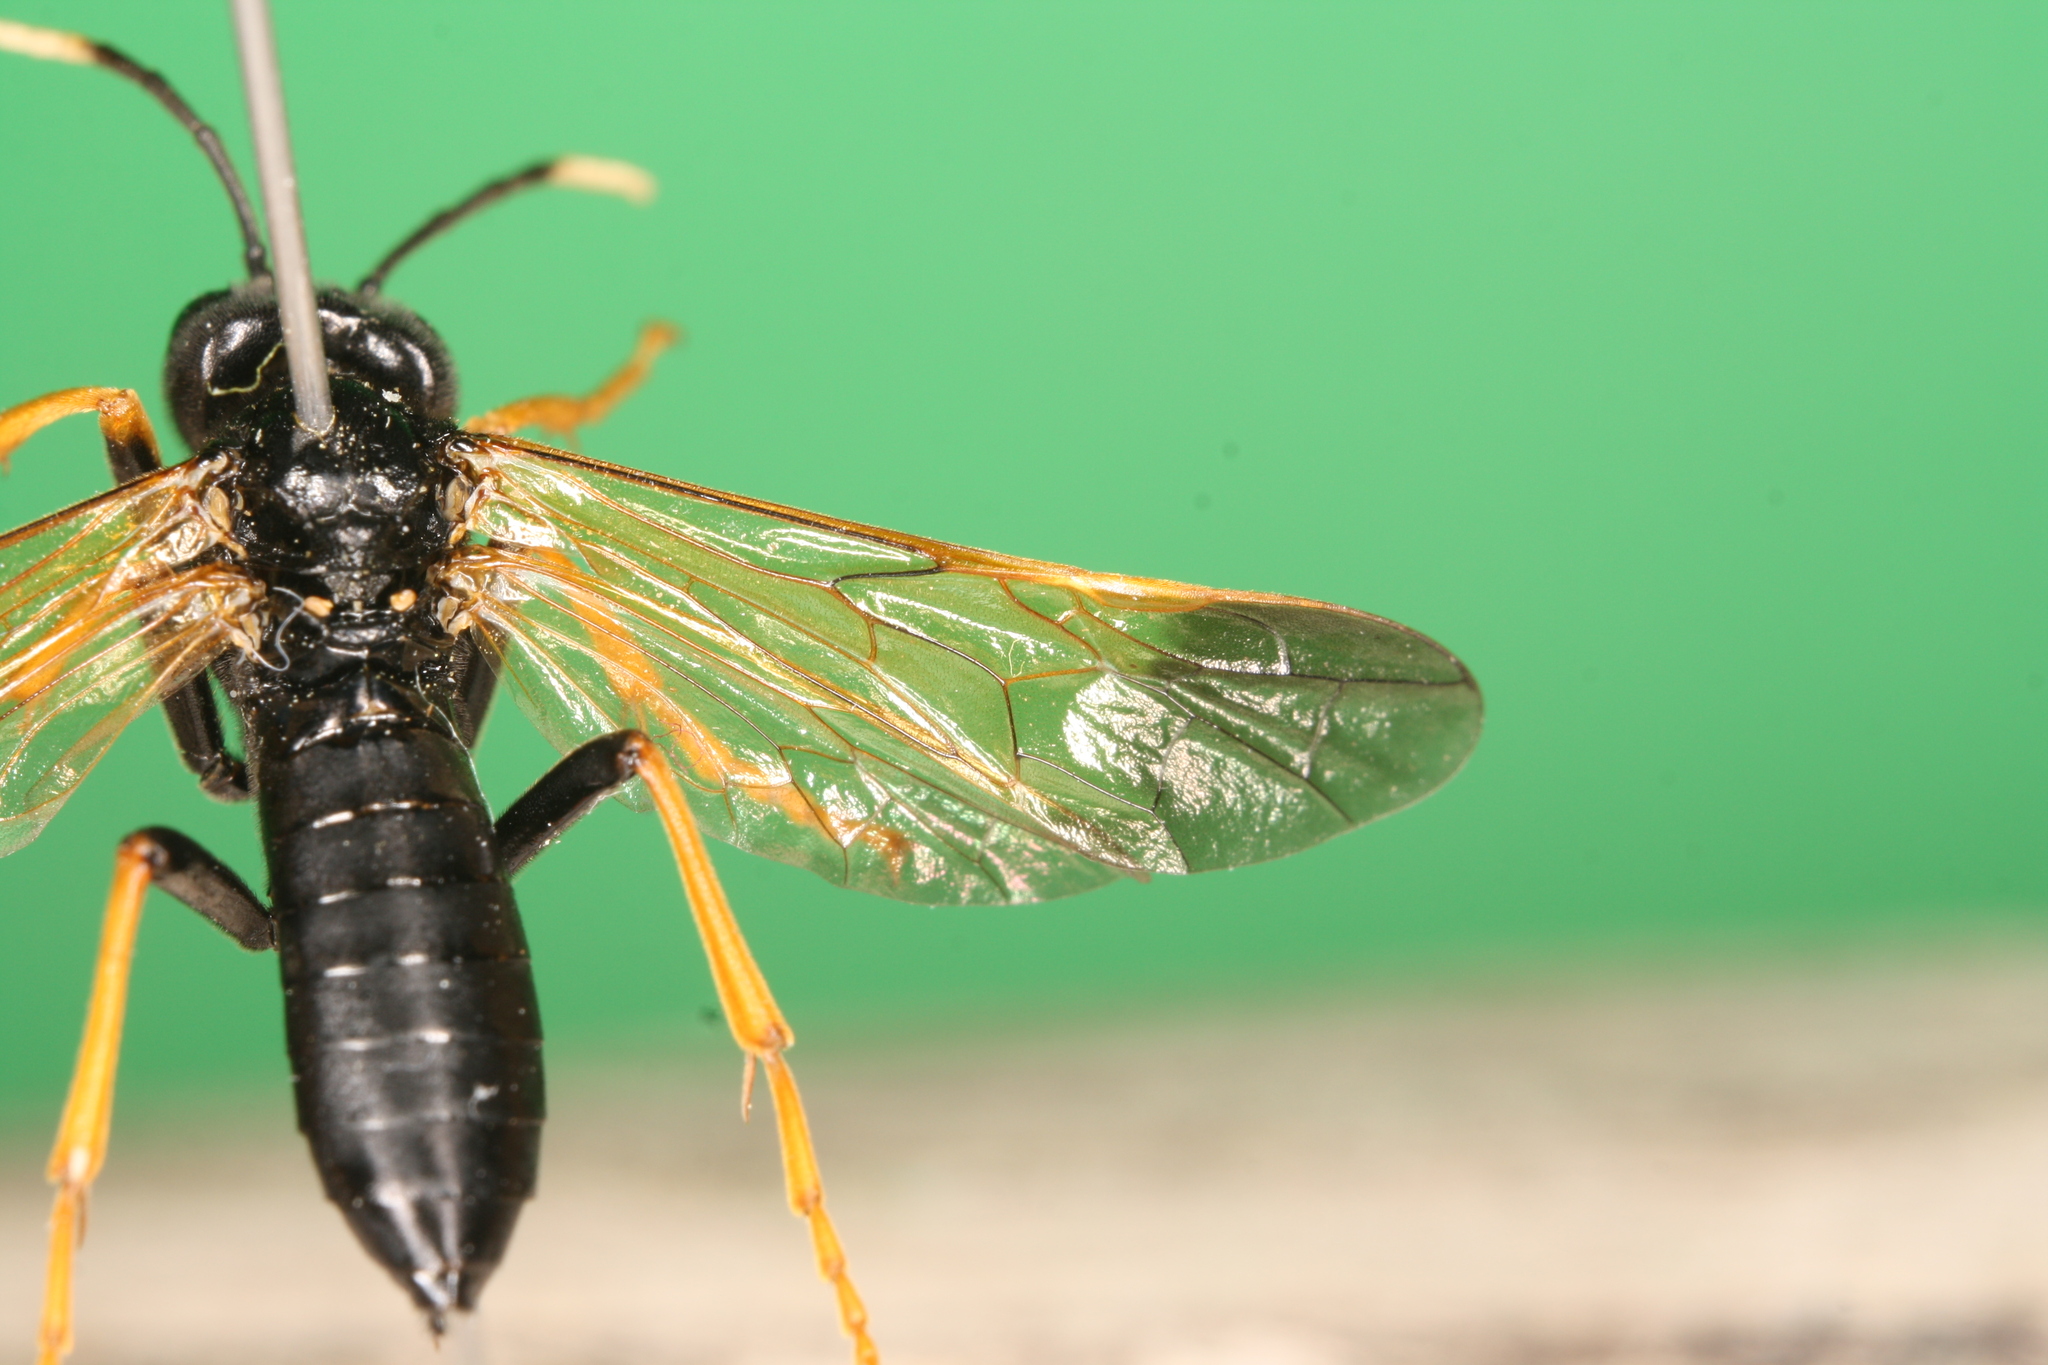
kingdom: Animalia
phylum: Arthropoda
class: Insecta
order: Hymenoptera
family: Tenthredinidae
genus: Tenthredo
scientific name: Tenthredo crassa
